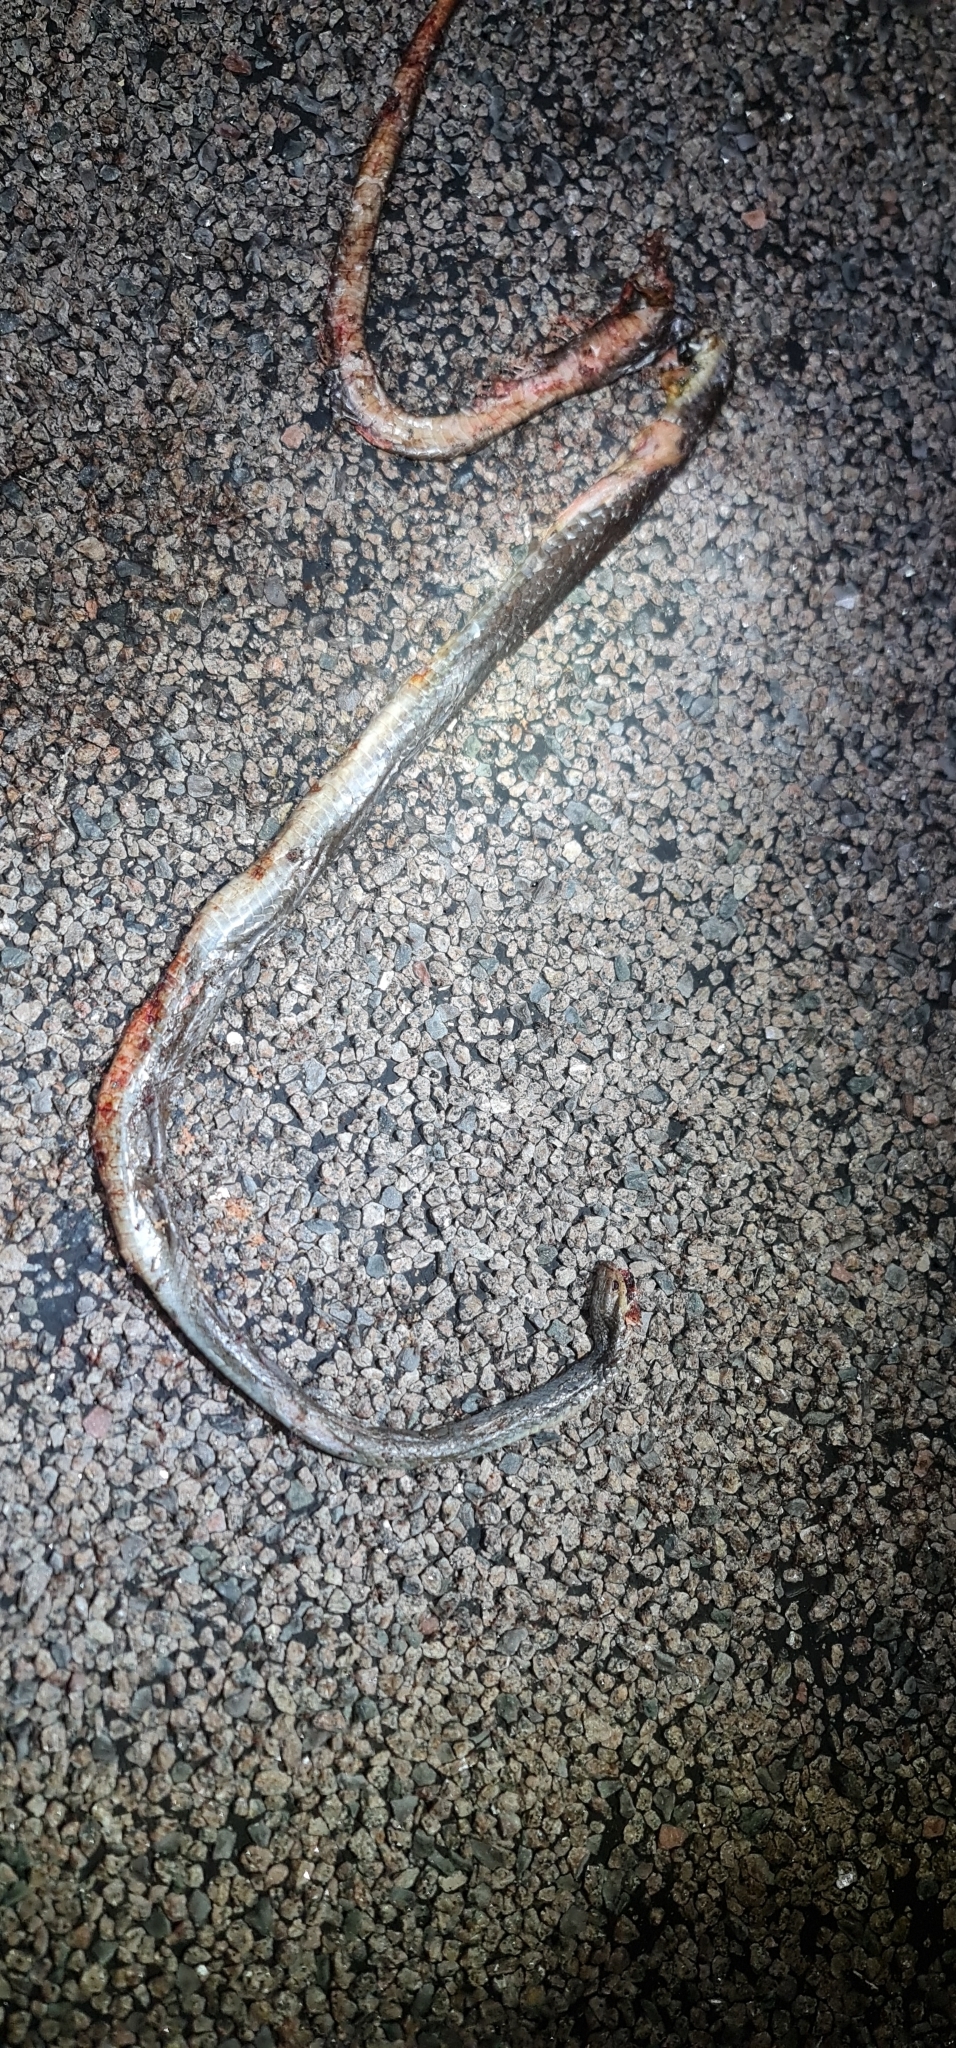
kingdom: Animalia
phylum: Chordata
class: Squamata
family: Elapidae
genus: Demansia
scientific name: Demansia papuensis
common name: Papuan whip snake
